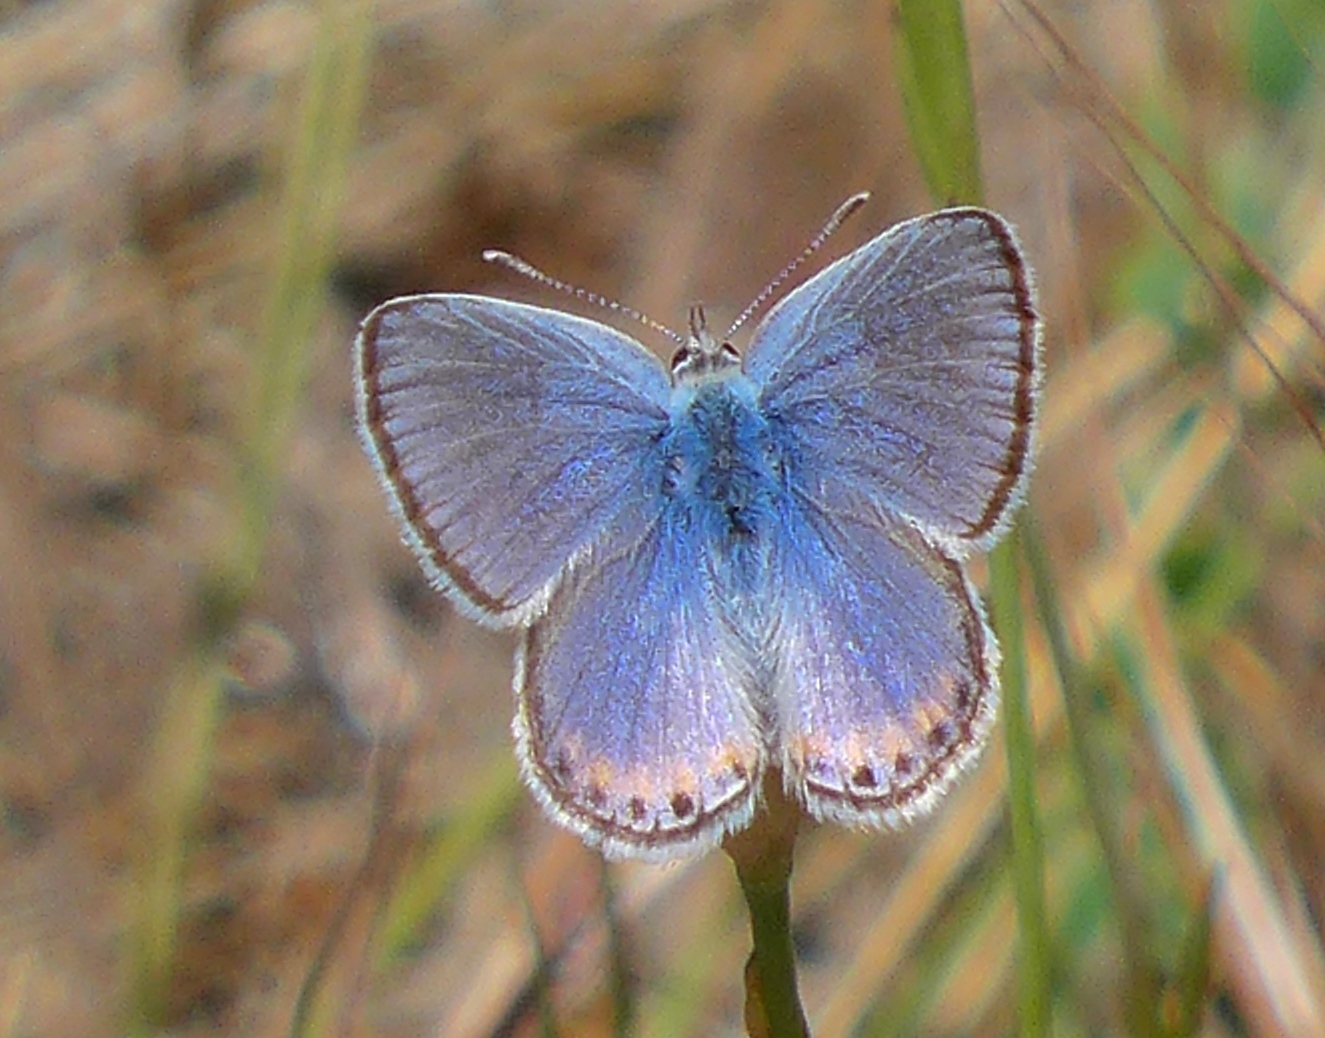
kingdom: Animalia
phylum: Arthropoda
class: Insecta
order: Lepidoptera
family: Lycaenidae
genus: Icaricia
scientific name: Icaricia acmon
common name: Acmon blue
